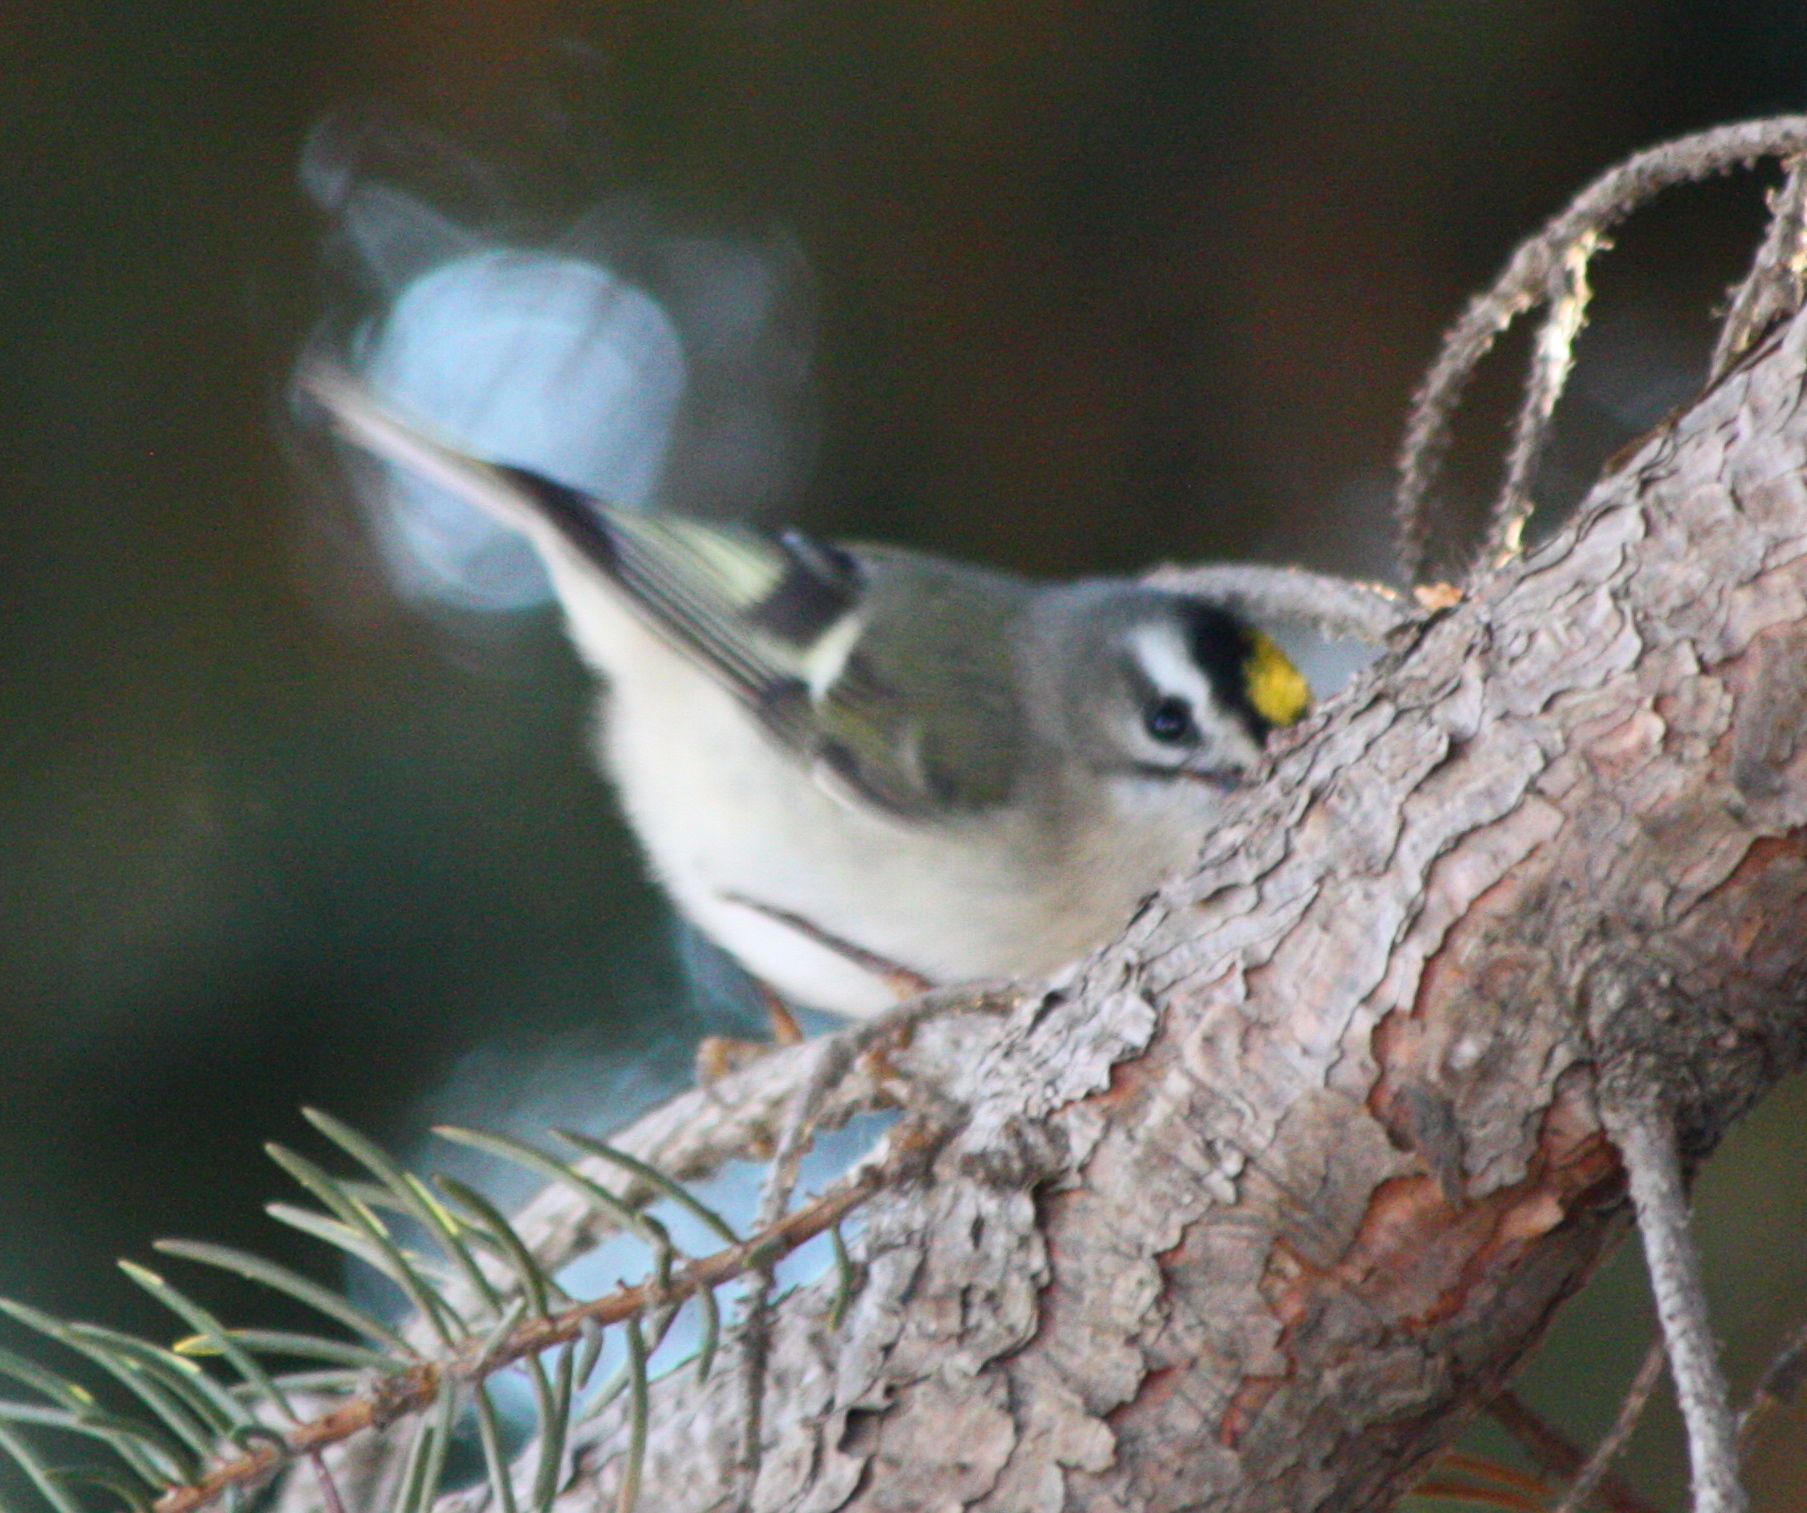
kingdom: Animalia
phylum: Chordata
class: Aves
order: Passeriformes
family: Regulidae
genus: Regulus
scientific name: Regulus satrapa
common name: Golden-crowned kinglet
